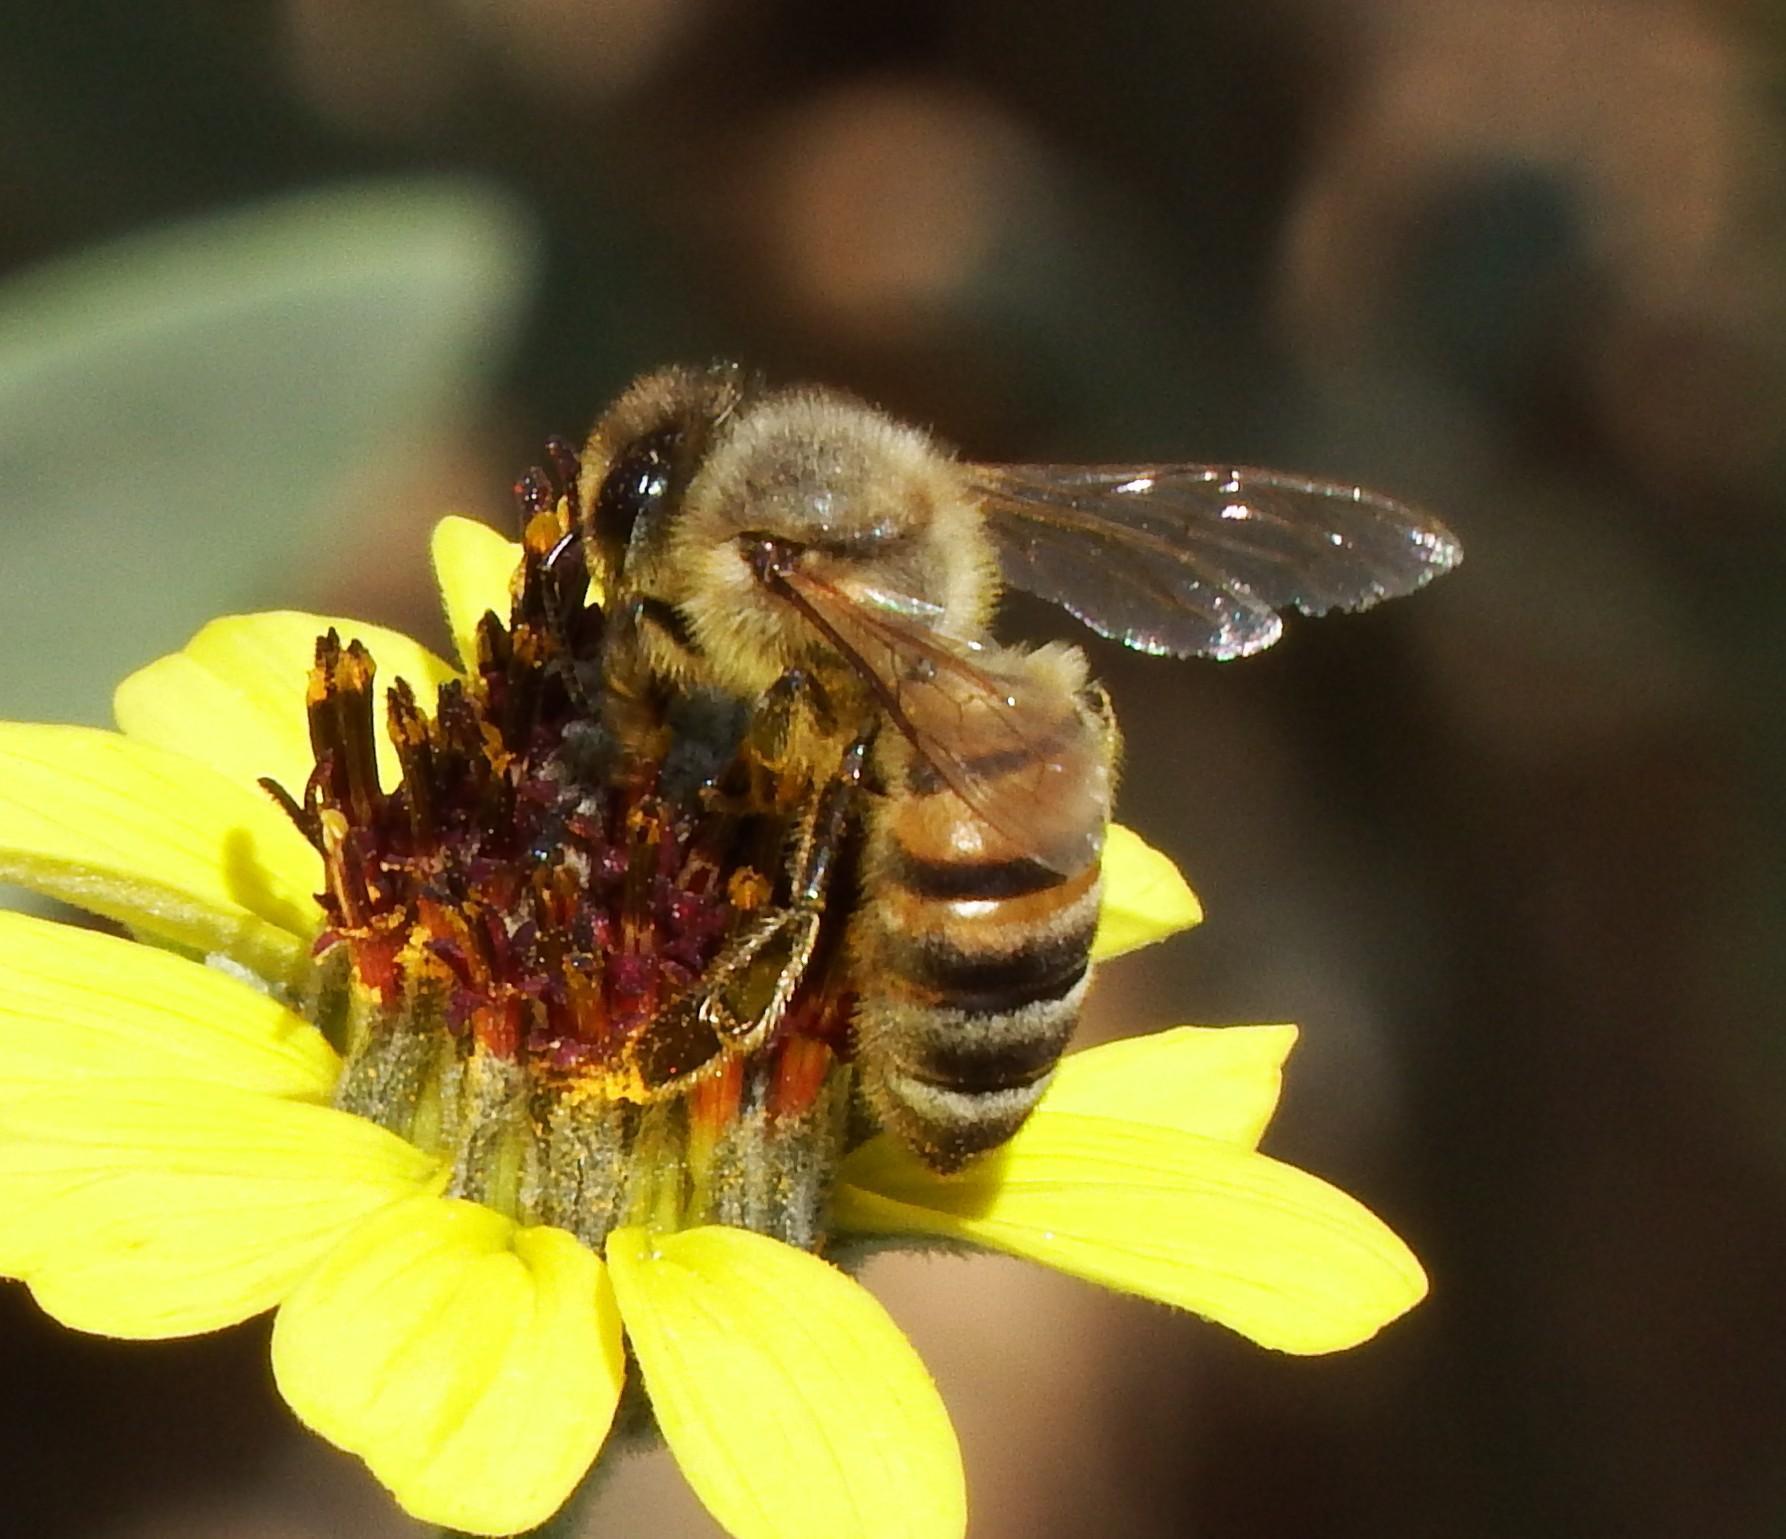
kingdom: Animalia
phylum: Arthropoda
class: Insecta
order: Hymenoptera
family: Apidae
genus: Apis
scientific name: Apis mellifera
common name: Honey bee
